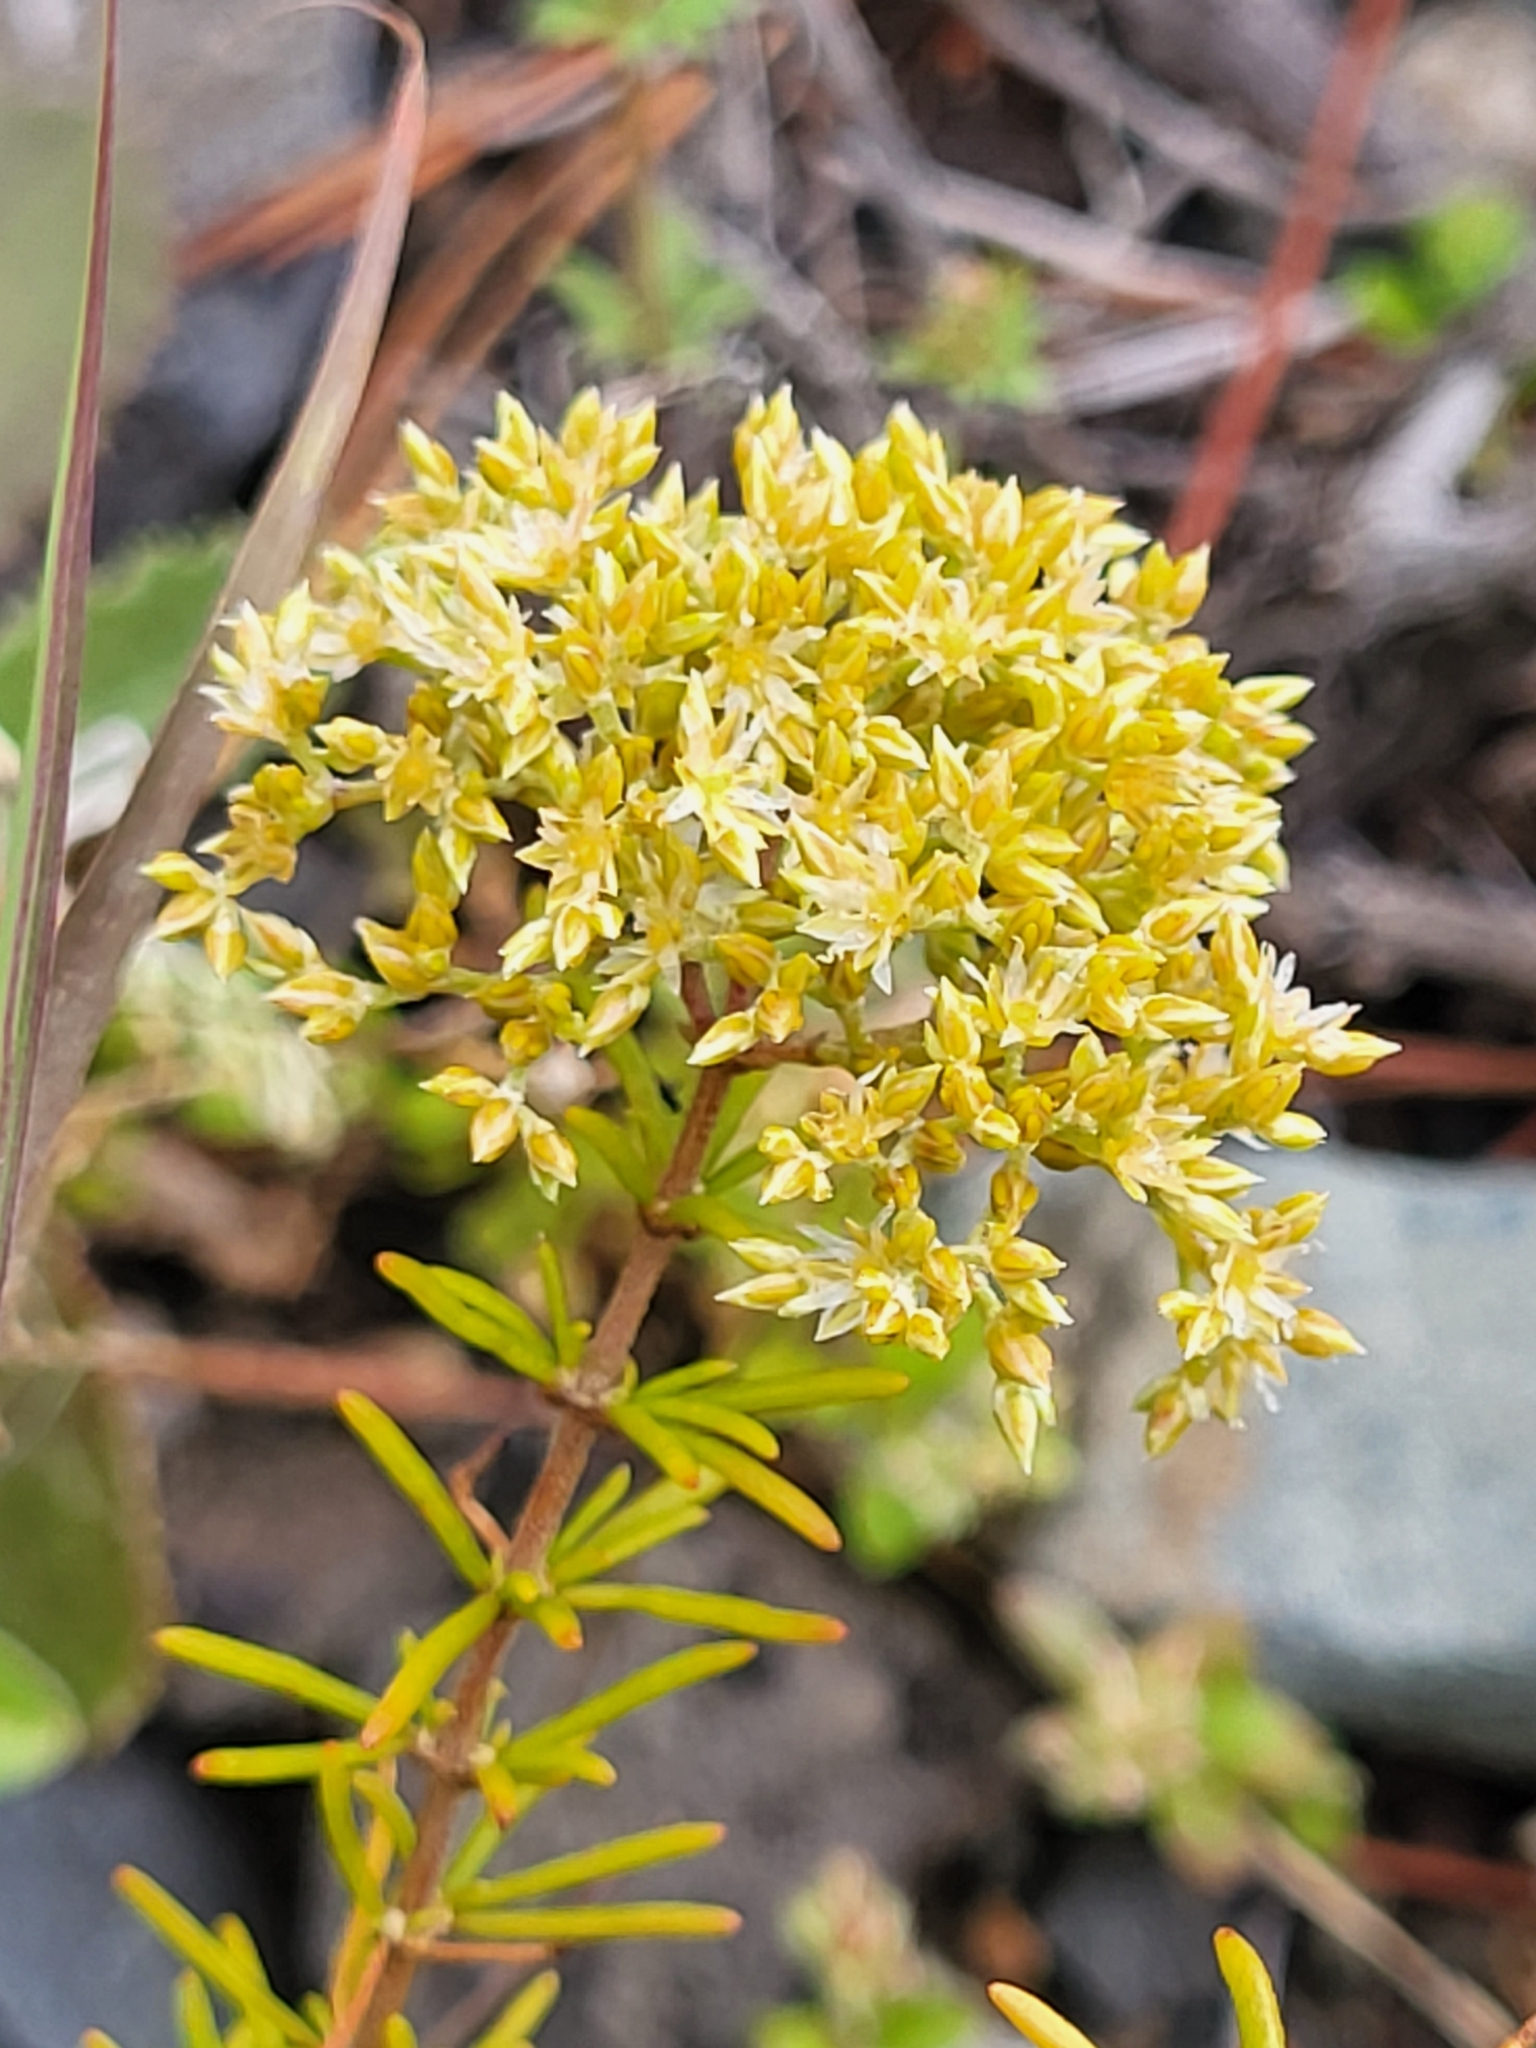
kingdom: Plantae
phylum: Tracheophyta
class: Magnoliopsida
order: Caryophyllales
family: Caryophyllaceae
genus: Polycarpaea
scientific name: Polycarpaea filifolia
